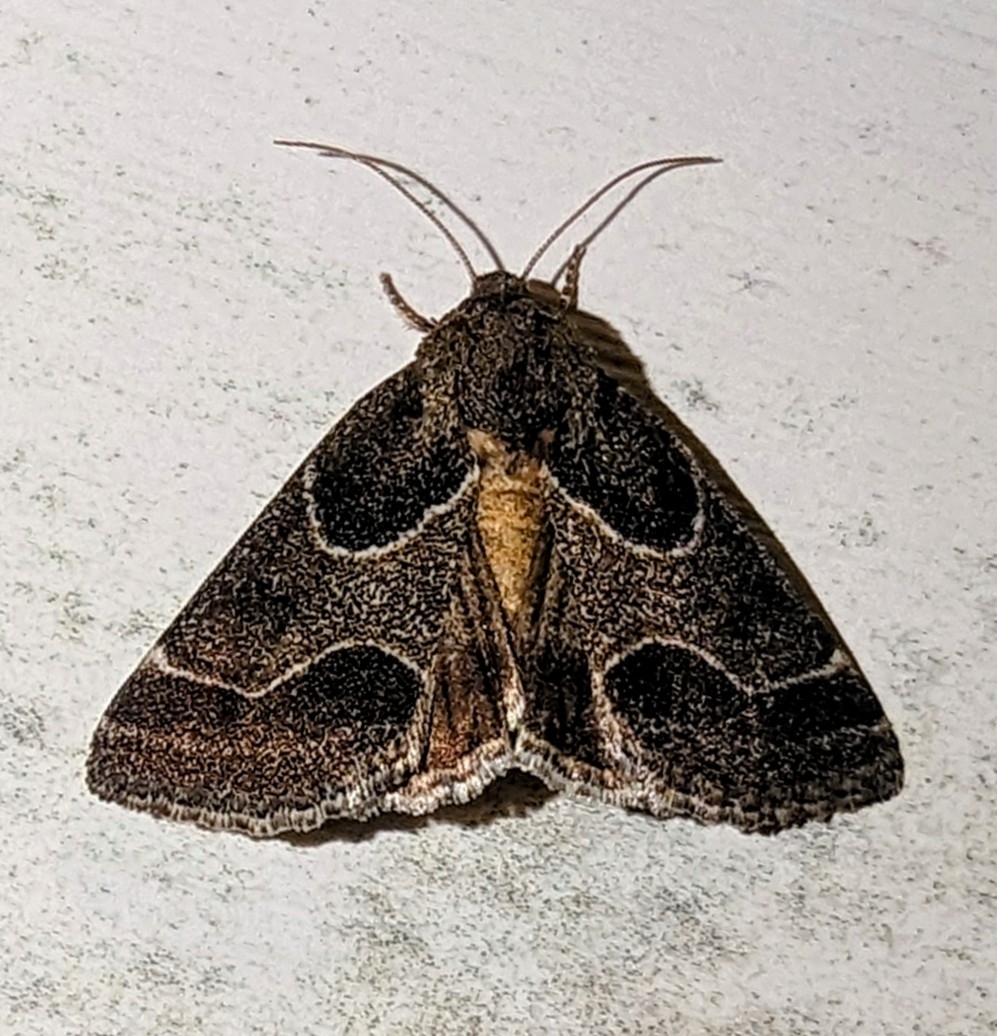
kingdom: Animalia
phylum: Arthropoda
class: Insecta
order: Lepidoptera
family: Noctuidae
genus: Schinia
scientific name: Schinia rivulosa
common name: Scarce meal-moth
